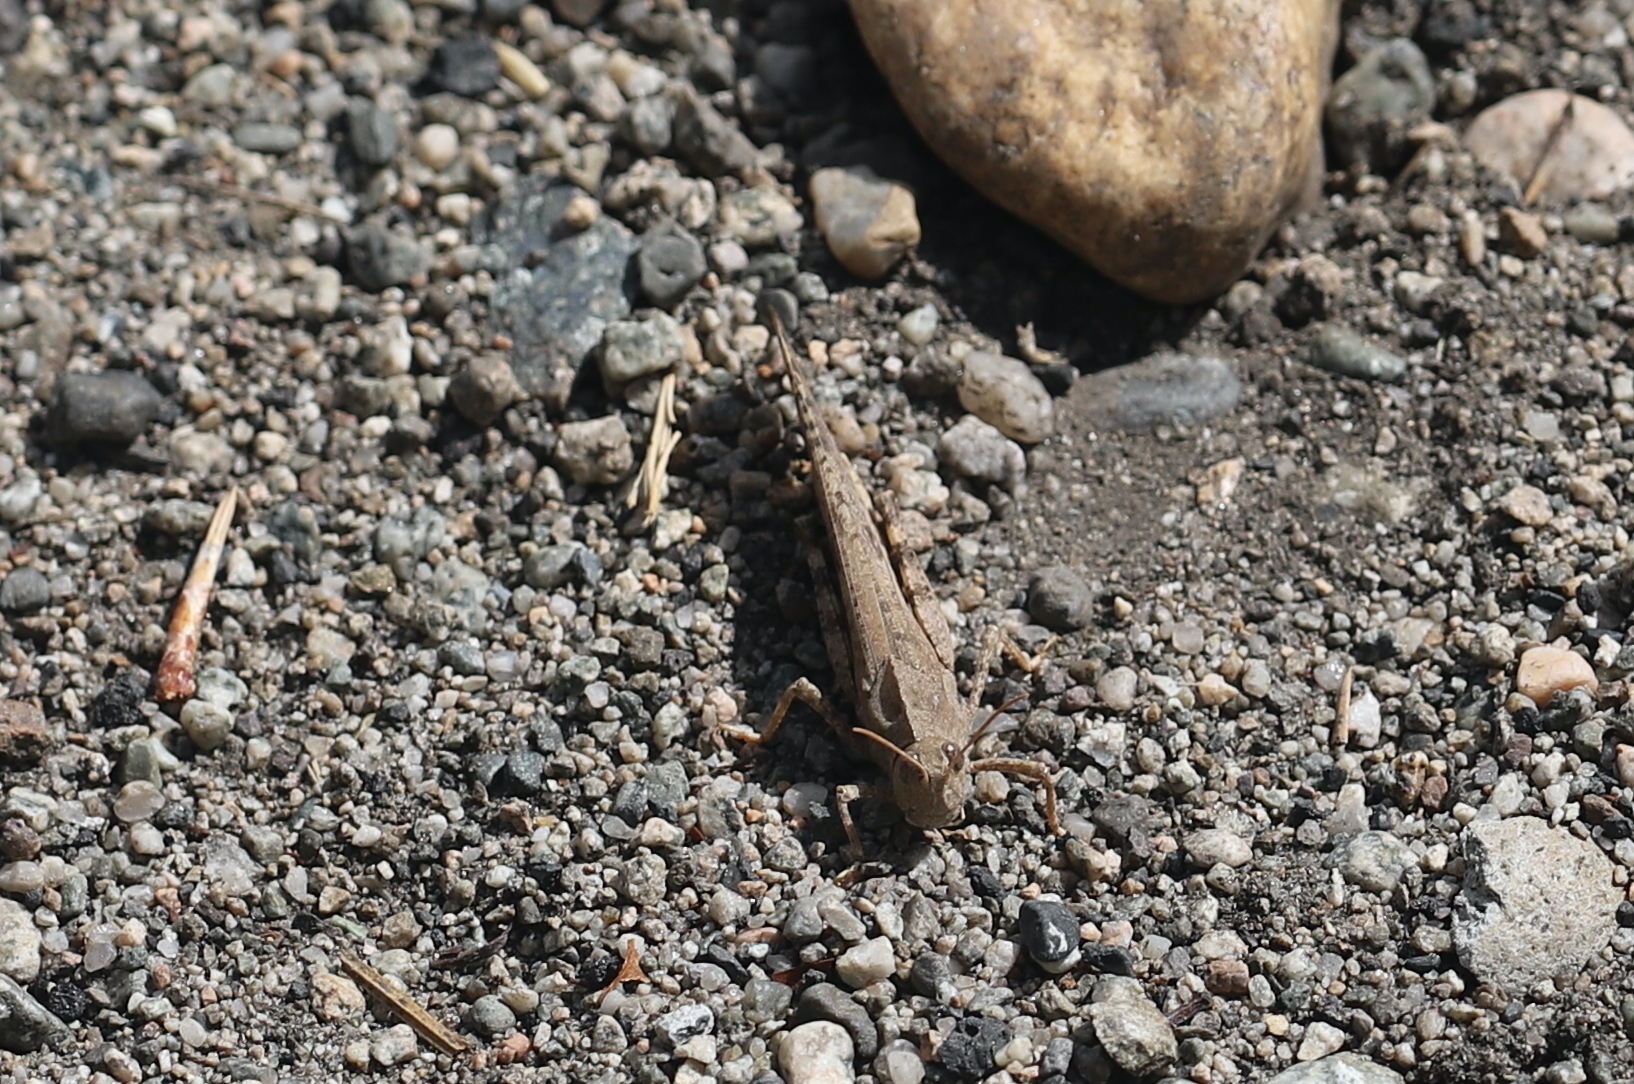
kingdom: Animalia
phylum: Arthropoda
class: Insecta
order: Orthoptera
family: Acrididae
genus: Dissosteira
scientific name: Dissosteira carolina
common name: Carolina grasshopper
